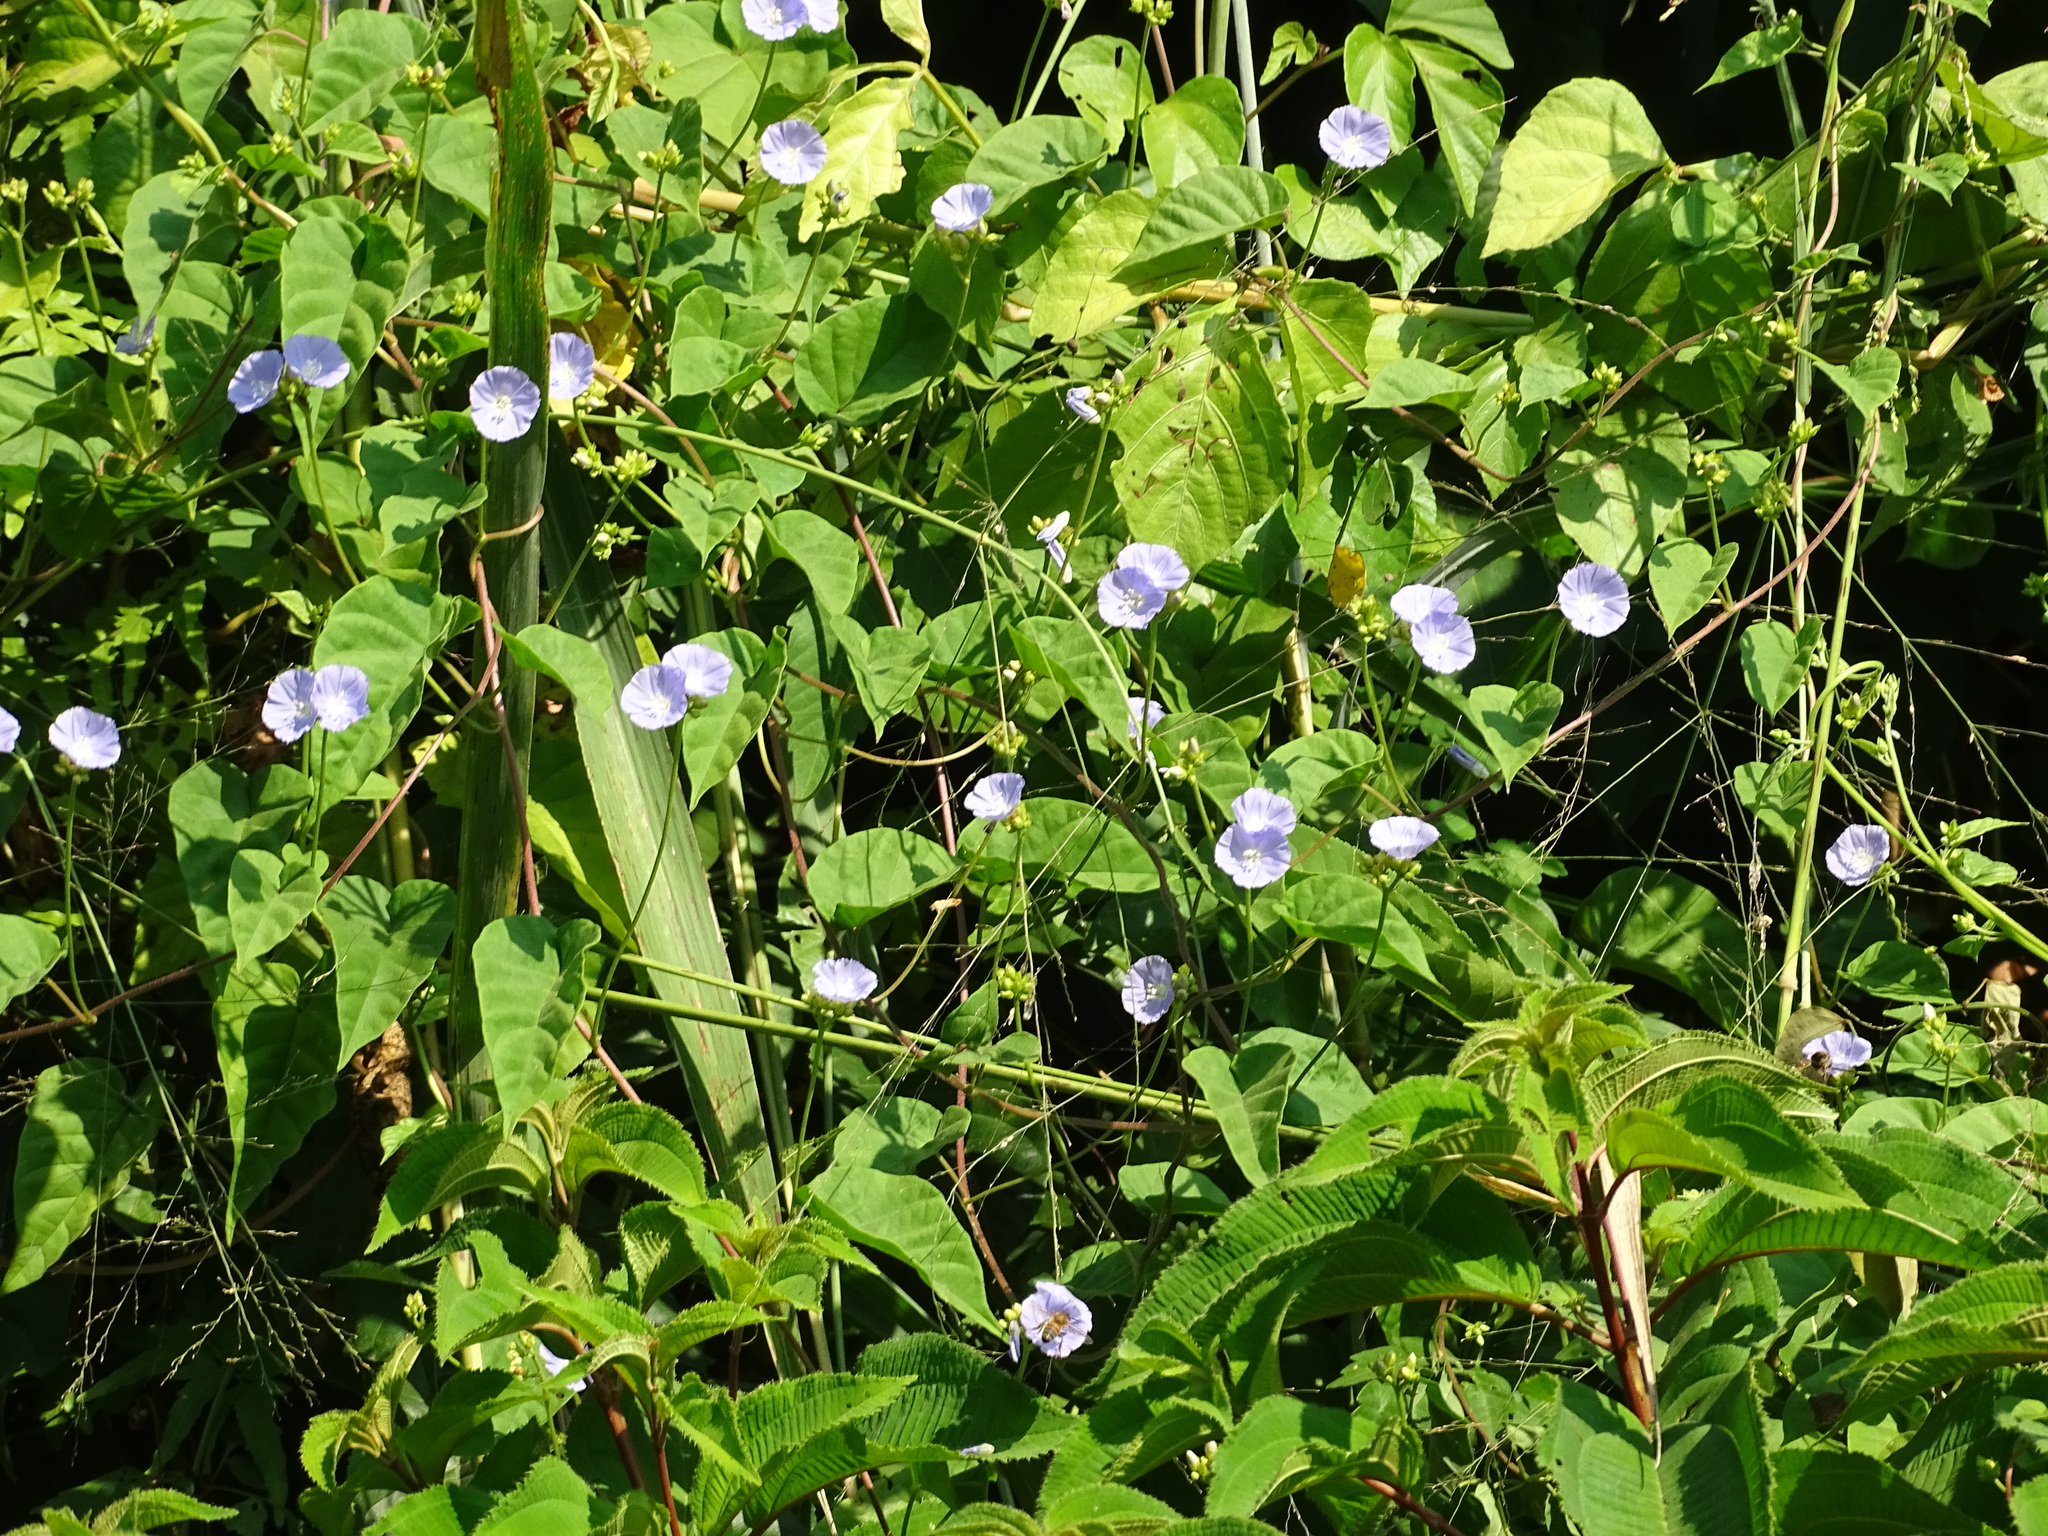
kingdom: Plantae
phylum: Tracheophyta
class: Magnoliopsida
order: Solanales
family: Convolvulaceae
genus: Jacquemontia
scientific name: Jacquemontia oaxacana
